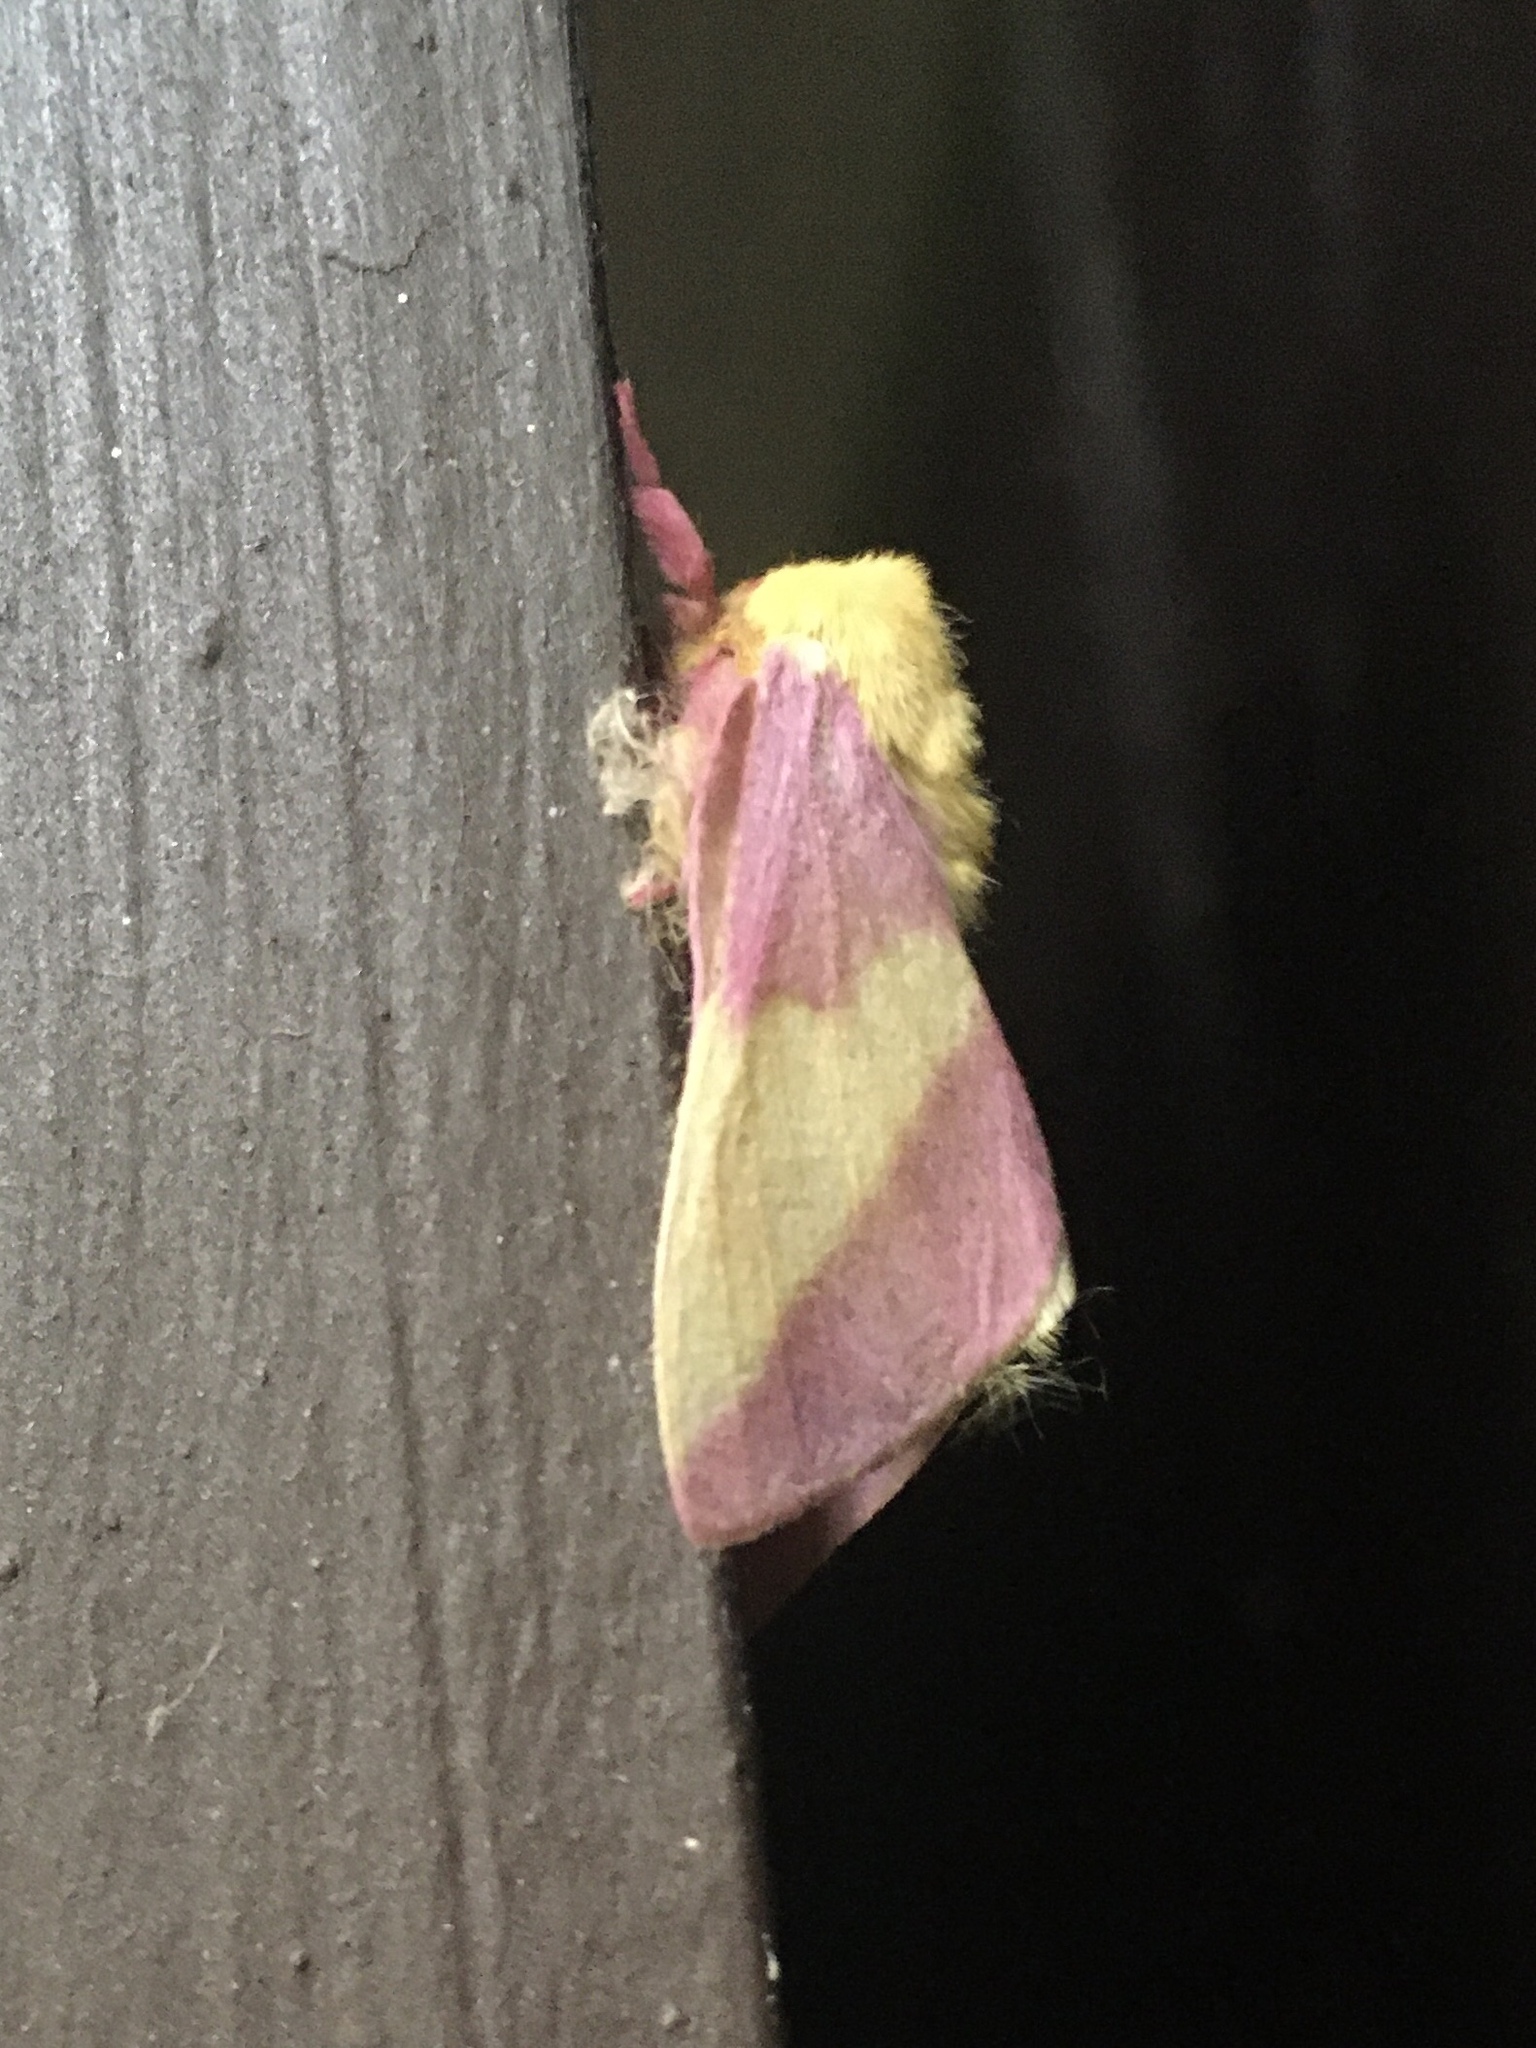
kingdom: Animalia
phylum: Arthropoda
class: Insecta
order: Lepidoptera
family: Saturniidae
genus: Dryocampa
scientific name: Dryocampa rubicunda
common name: Rosy maple moth
